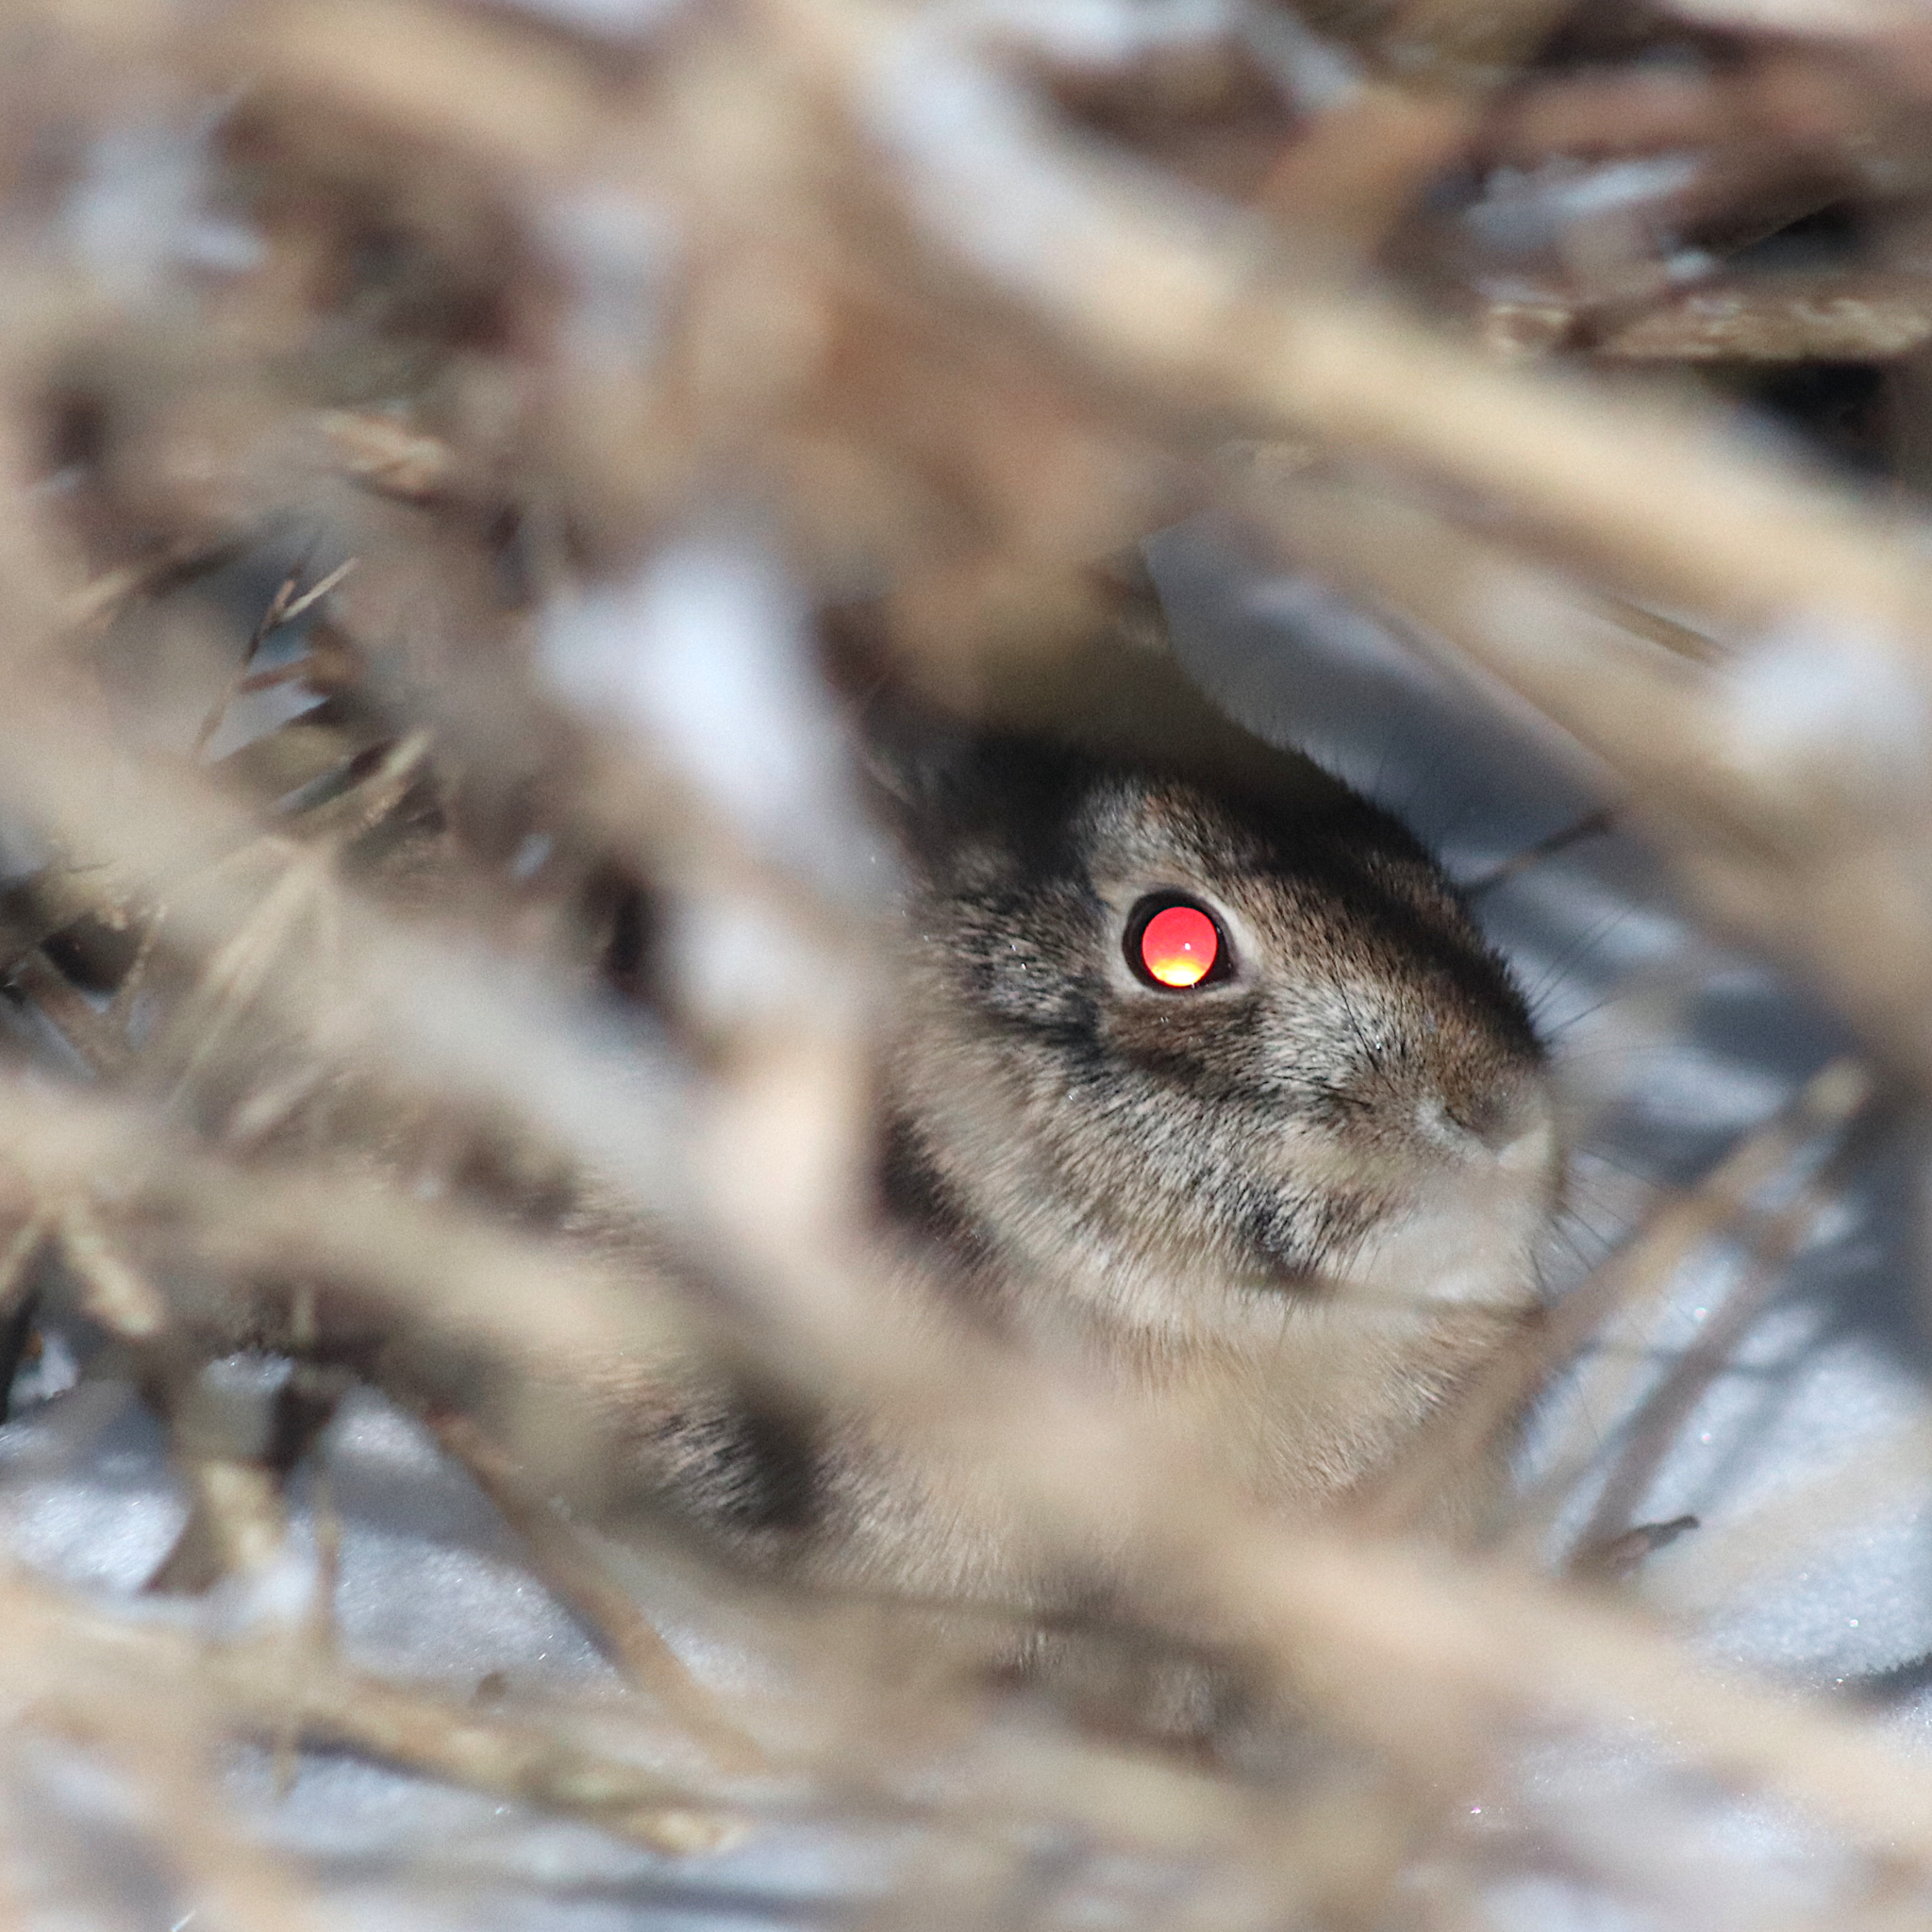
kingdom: Animalia
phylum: Chordata
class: Mammalia
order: Lagomorpha
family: Leporidae
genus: Sylvilagus
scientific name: Sylvilagus floridanus
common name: Eastern cottontail
